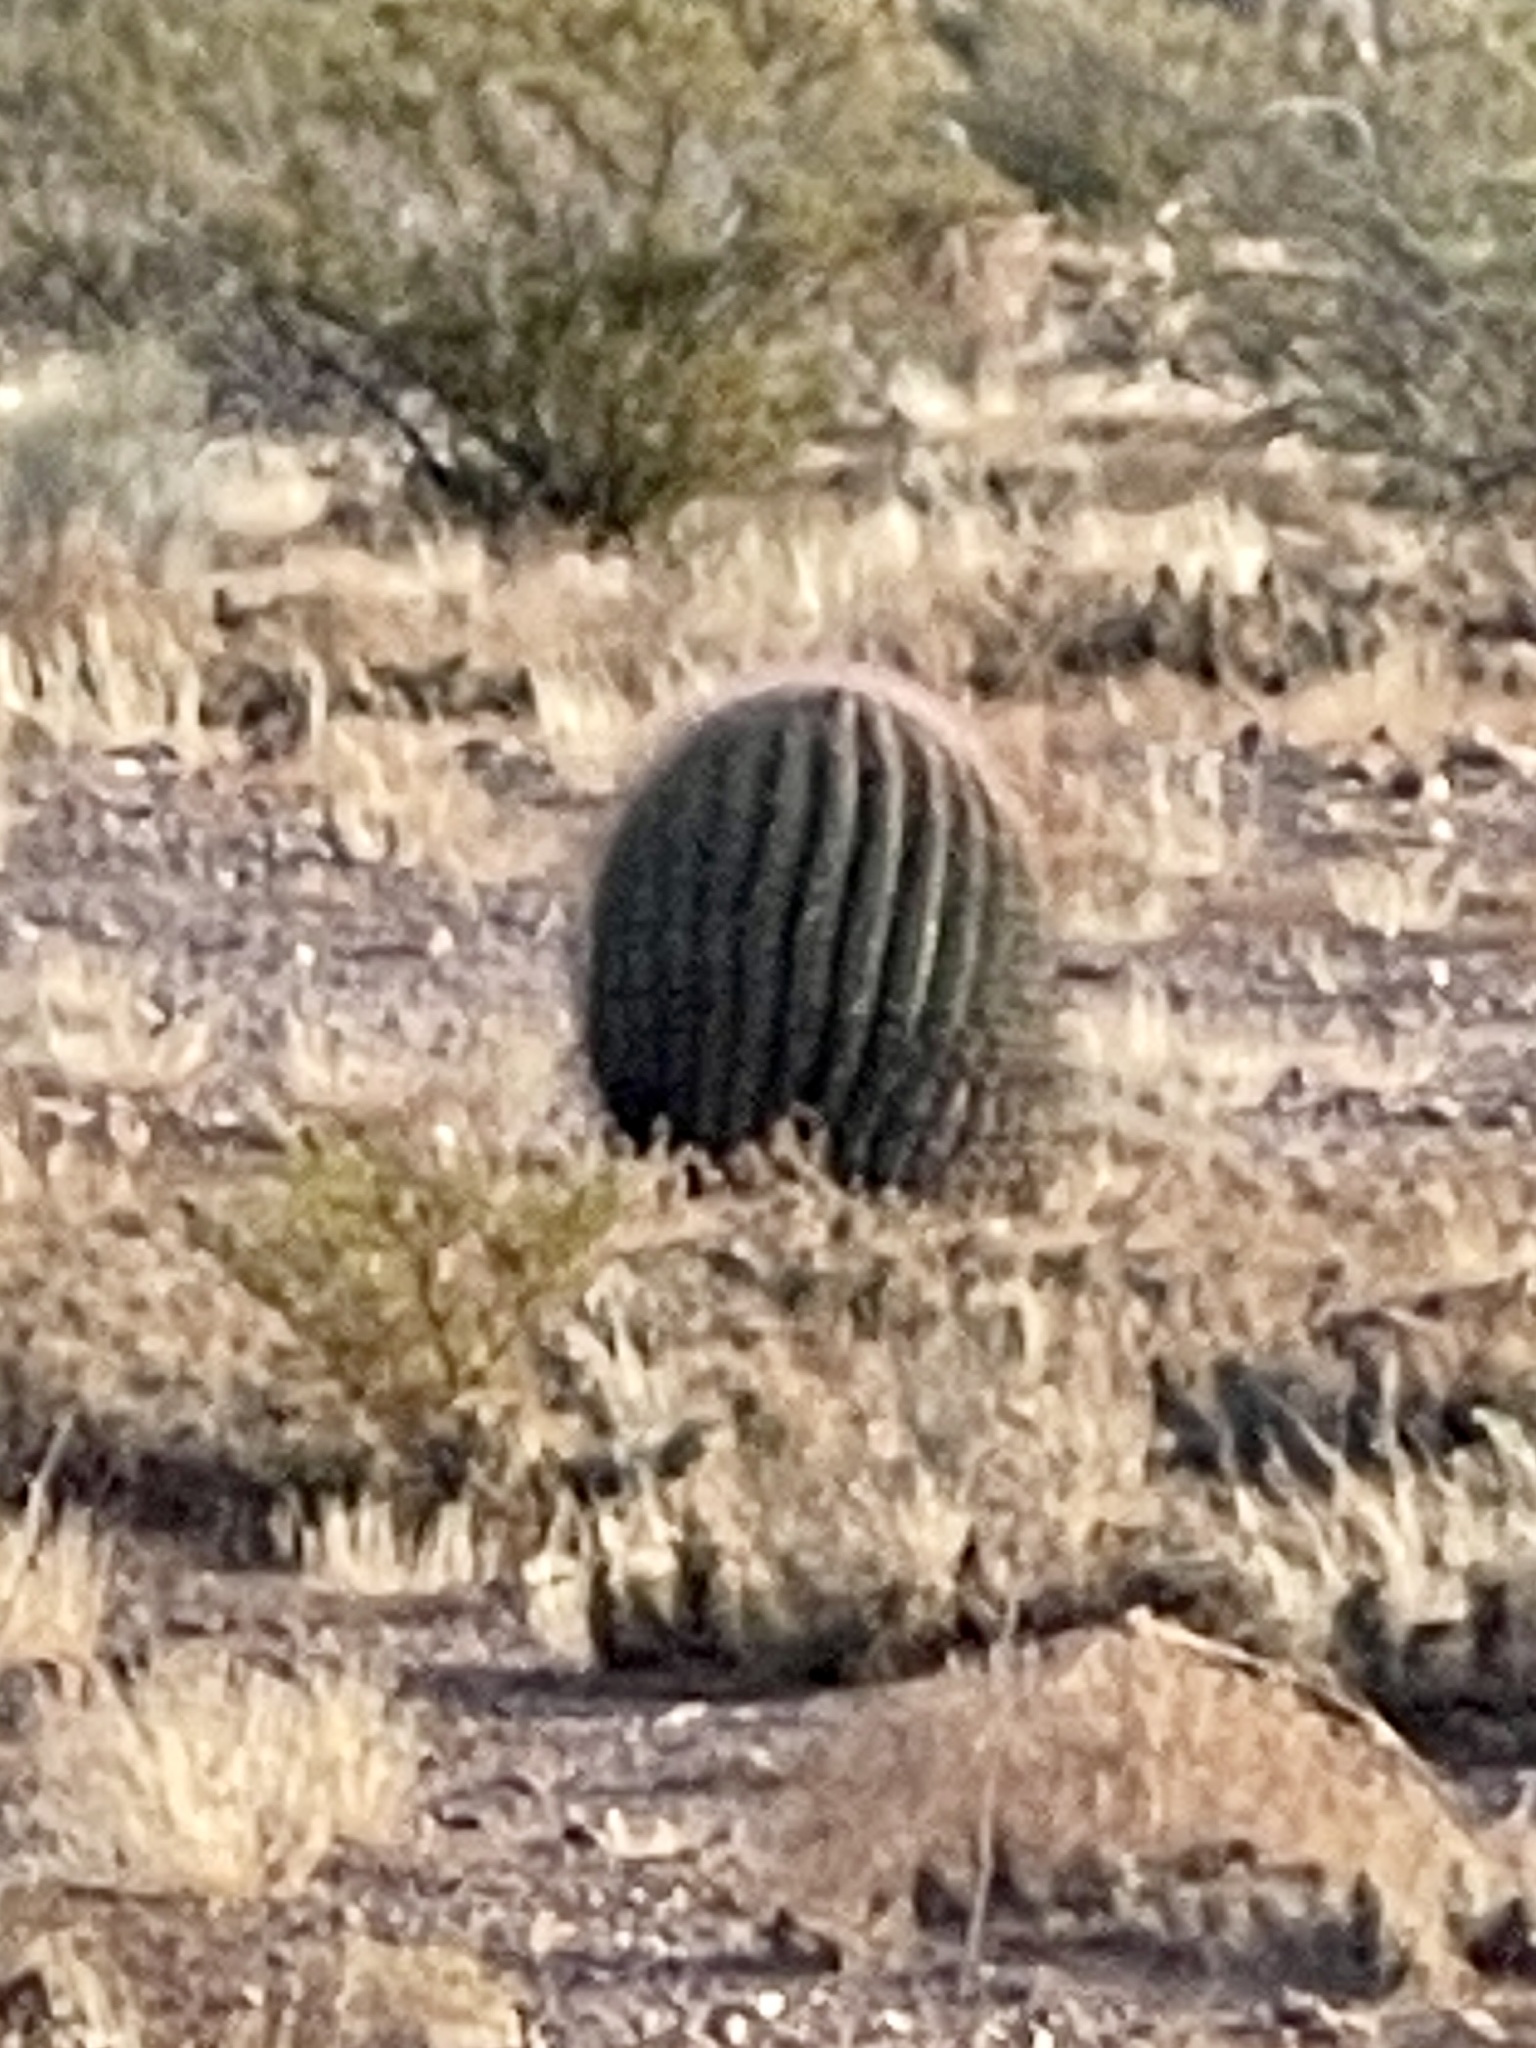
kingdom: Plantae
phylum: Tracheophyta
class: Magnoliopsida
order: Caryophyllales
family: Cactaceae
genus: Ferocactus
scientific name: Ferocactus wislizeni
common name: Candy barrel cactus
